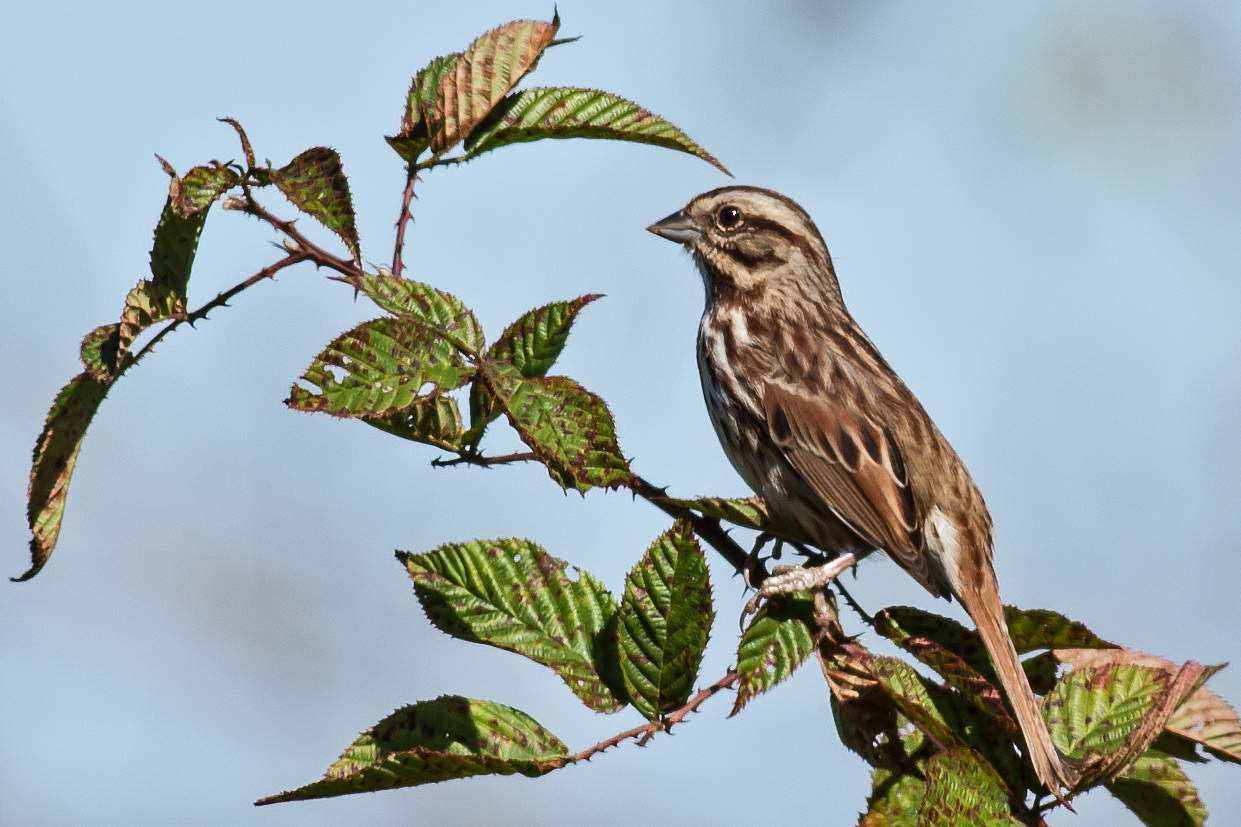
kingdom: Animalia
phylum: Chordata
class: Aves
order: Passeriformes
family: Passerellidae
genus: Melospiza
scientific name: Melospiza melodia
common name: Song sparrow
